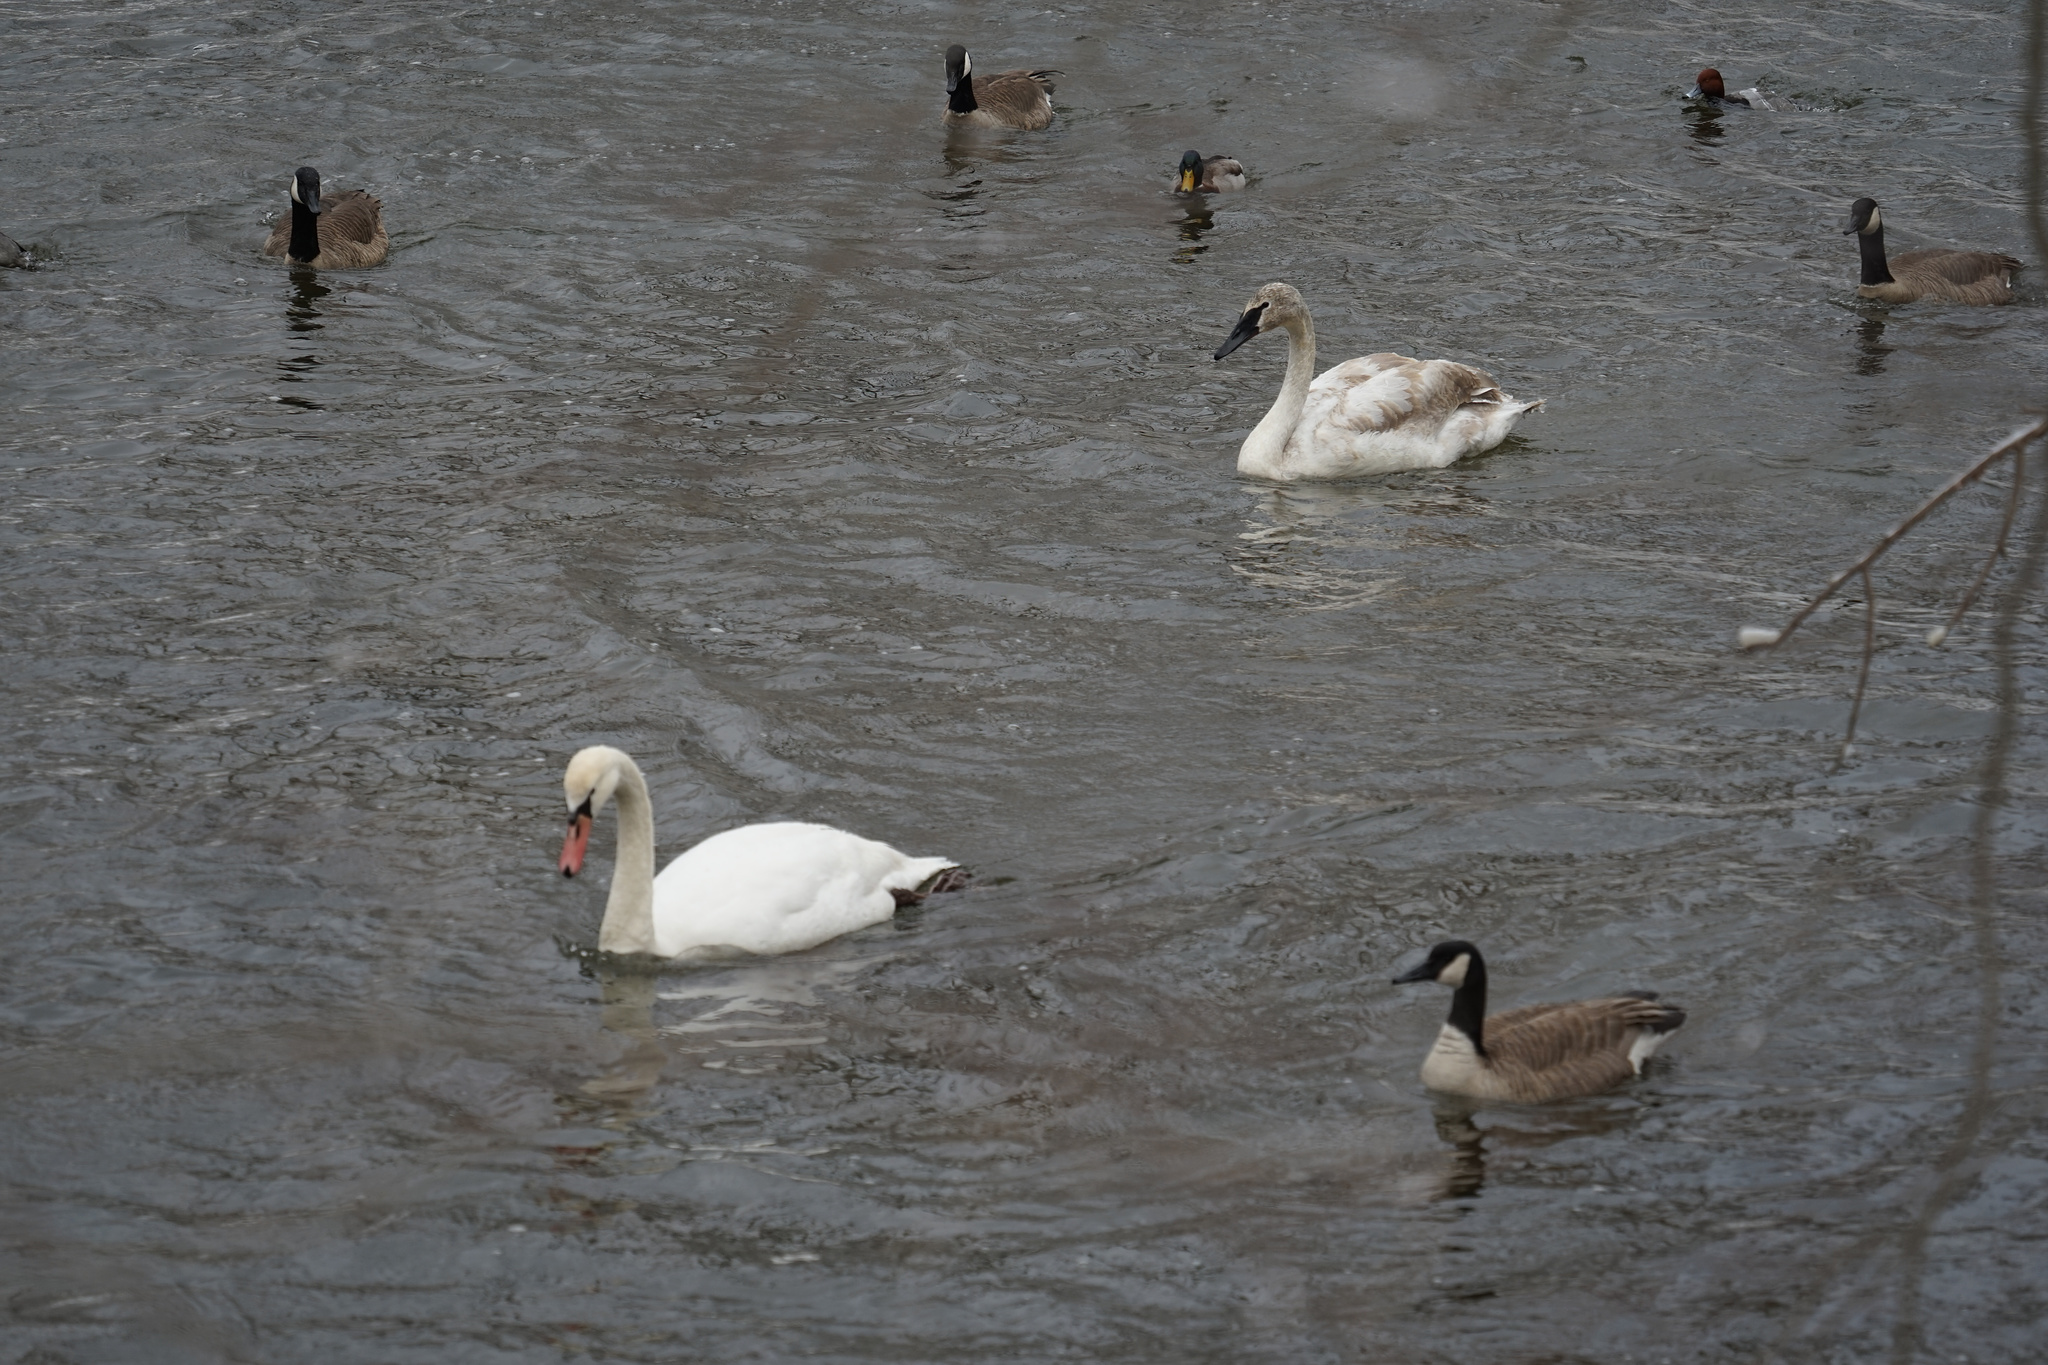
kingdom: Animalia
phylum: Chordata
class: Aves
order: Anseriformes
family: Anatidae
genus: Cygnus
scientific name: Cygnus olor
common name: Mute swan
